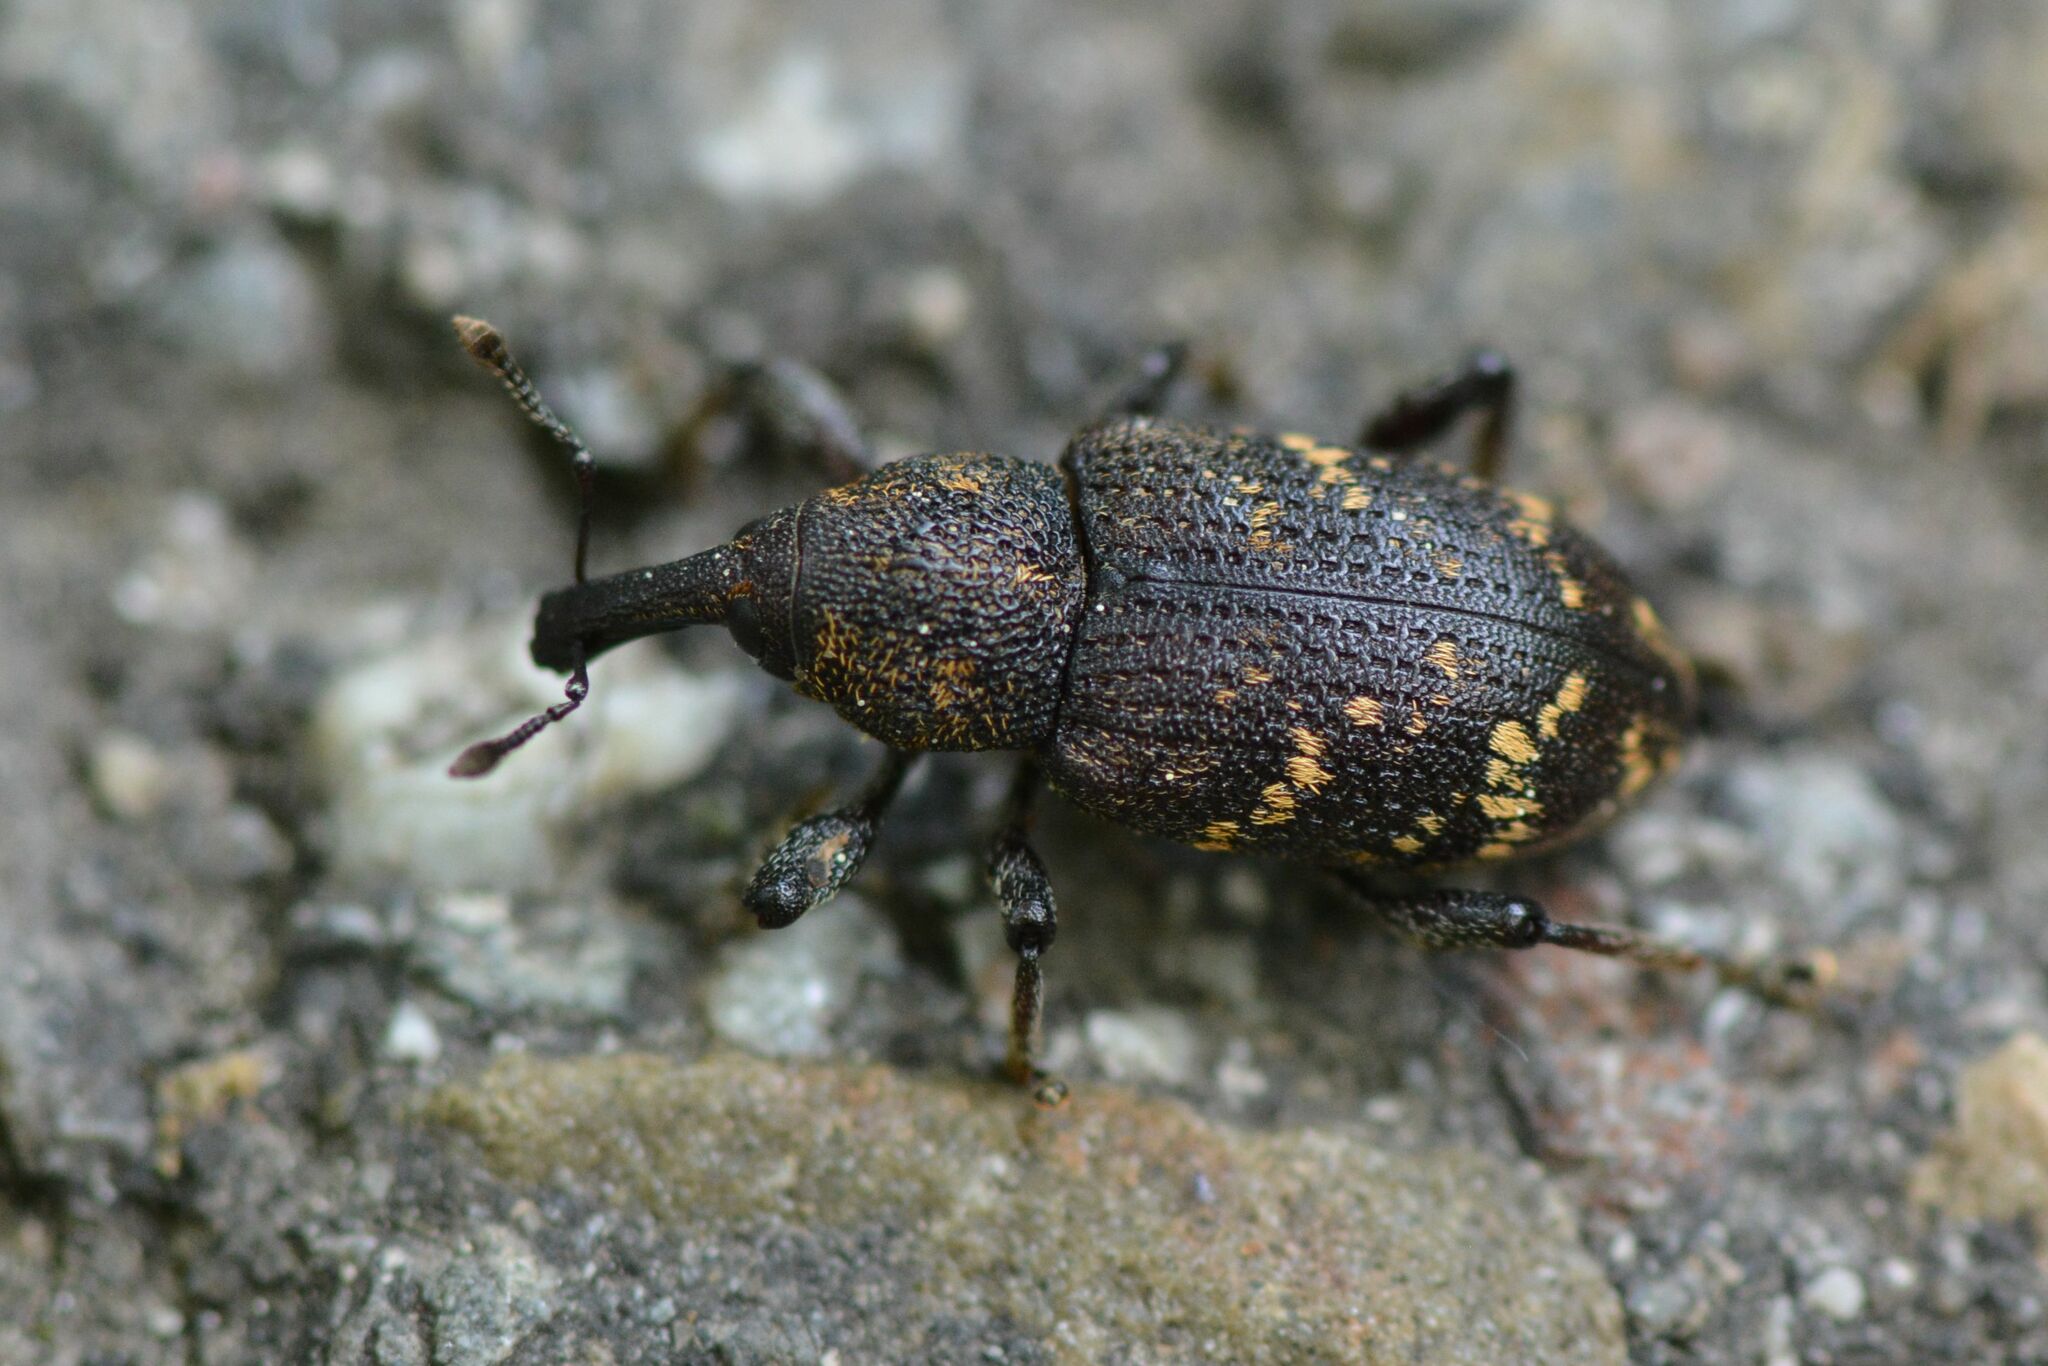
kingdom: Animalia
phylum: Arthropoda
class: Insecta
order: Coleoptera
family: Curculionidae
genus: Hylobius
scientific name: Hylobius abietis
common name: Large pine weevil
